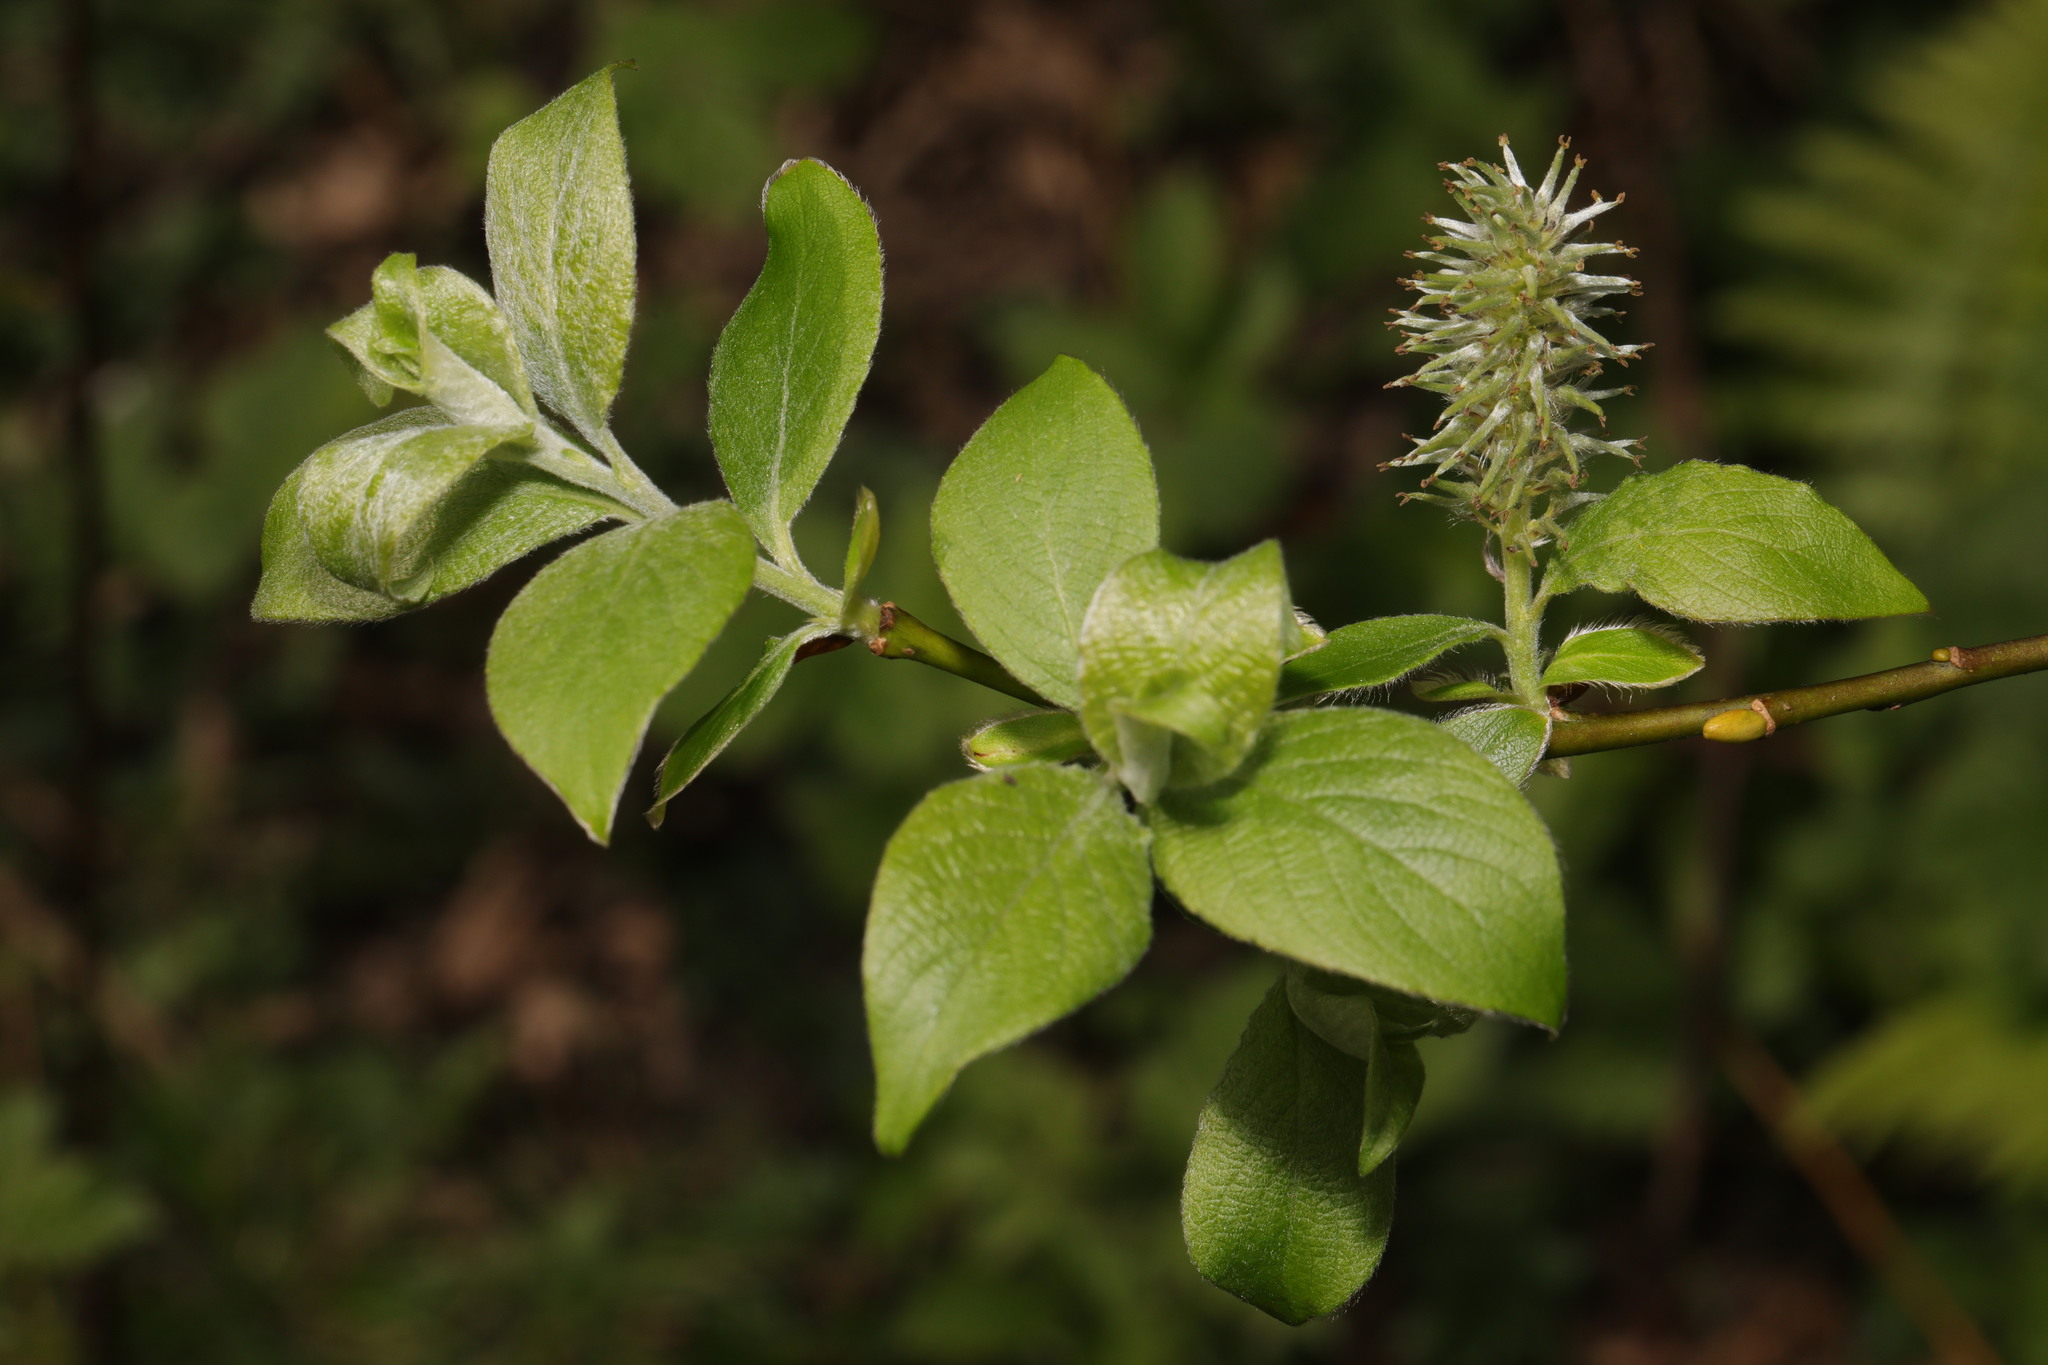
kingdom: Plantae
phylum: Tracheophyta
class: Magnoliopsida
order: Malpighiales
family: Salicaceae
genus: Salix
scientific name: Salix caprea
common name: Goat willow
